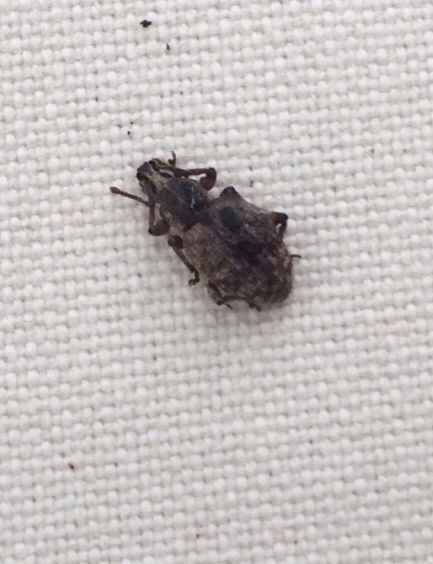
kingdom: Animalia
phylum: Arthropoda
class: Insecta
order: Coleoptera
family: Curculionidae
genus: Otiorhynchus
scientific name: Otiorhynchus singularis
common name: Clay-coloured weevil
